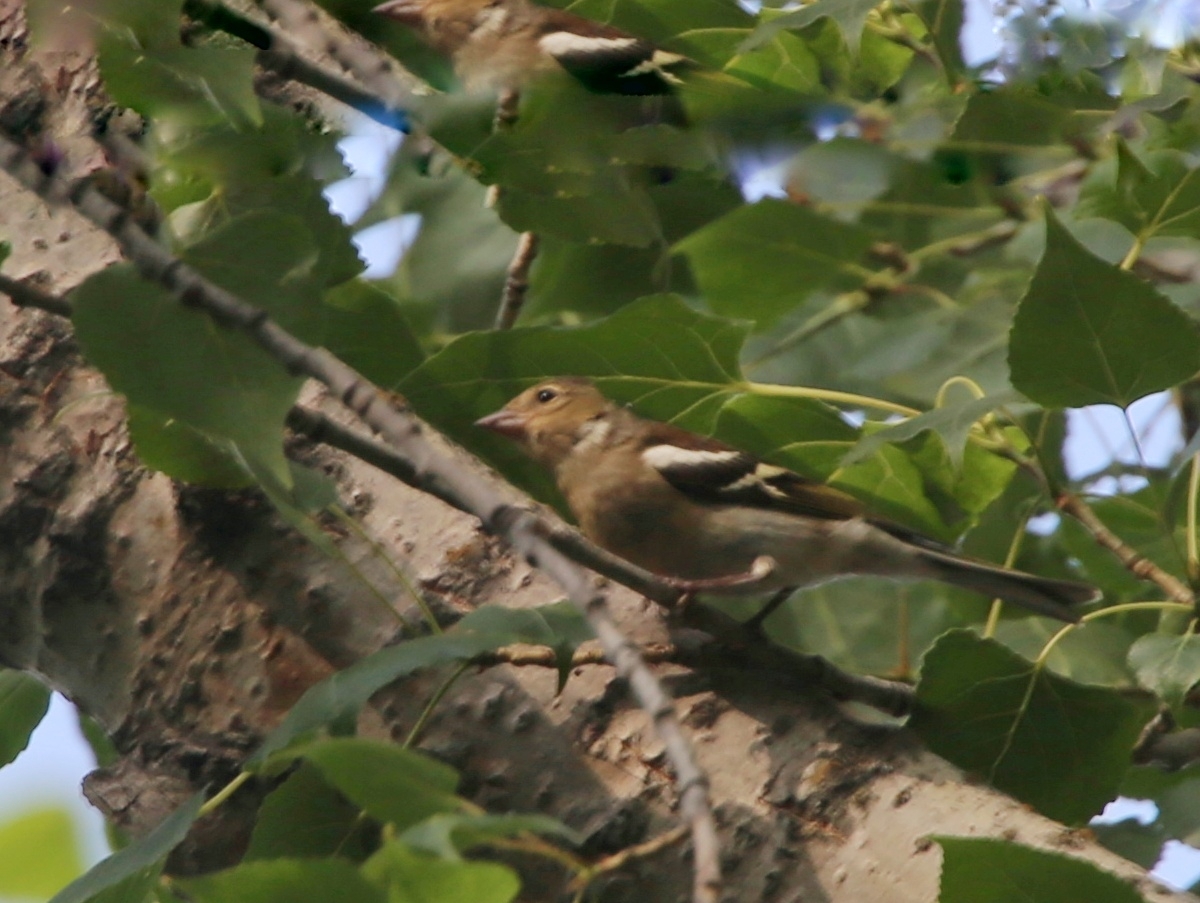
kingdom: Animalia
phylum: Chordata
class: Aves
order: Passeriformes
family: Fringillidae
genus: Fringilla
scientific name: Fringilla coelebs
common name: Common chaffinch
